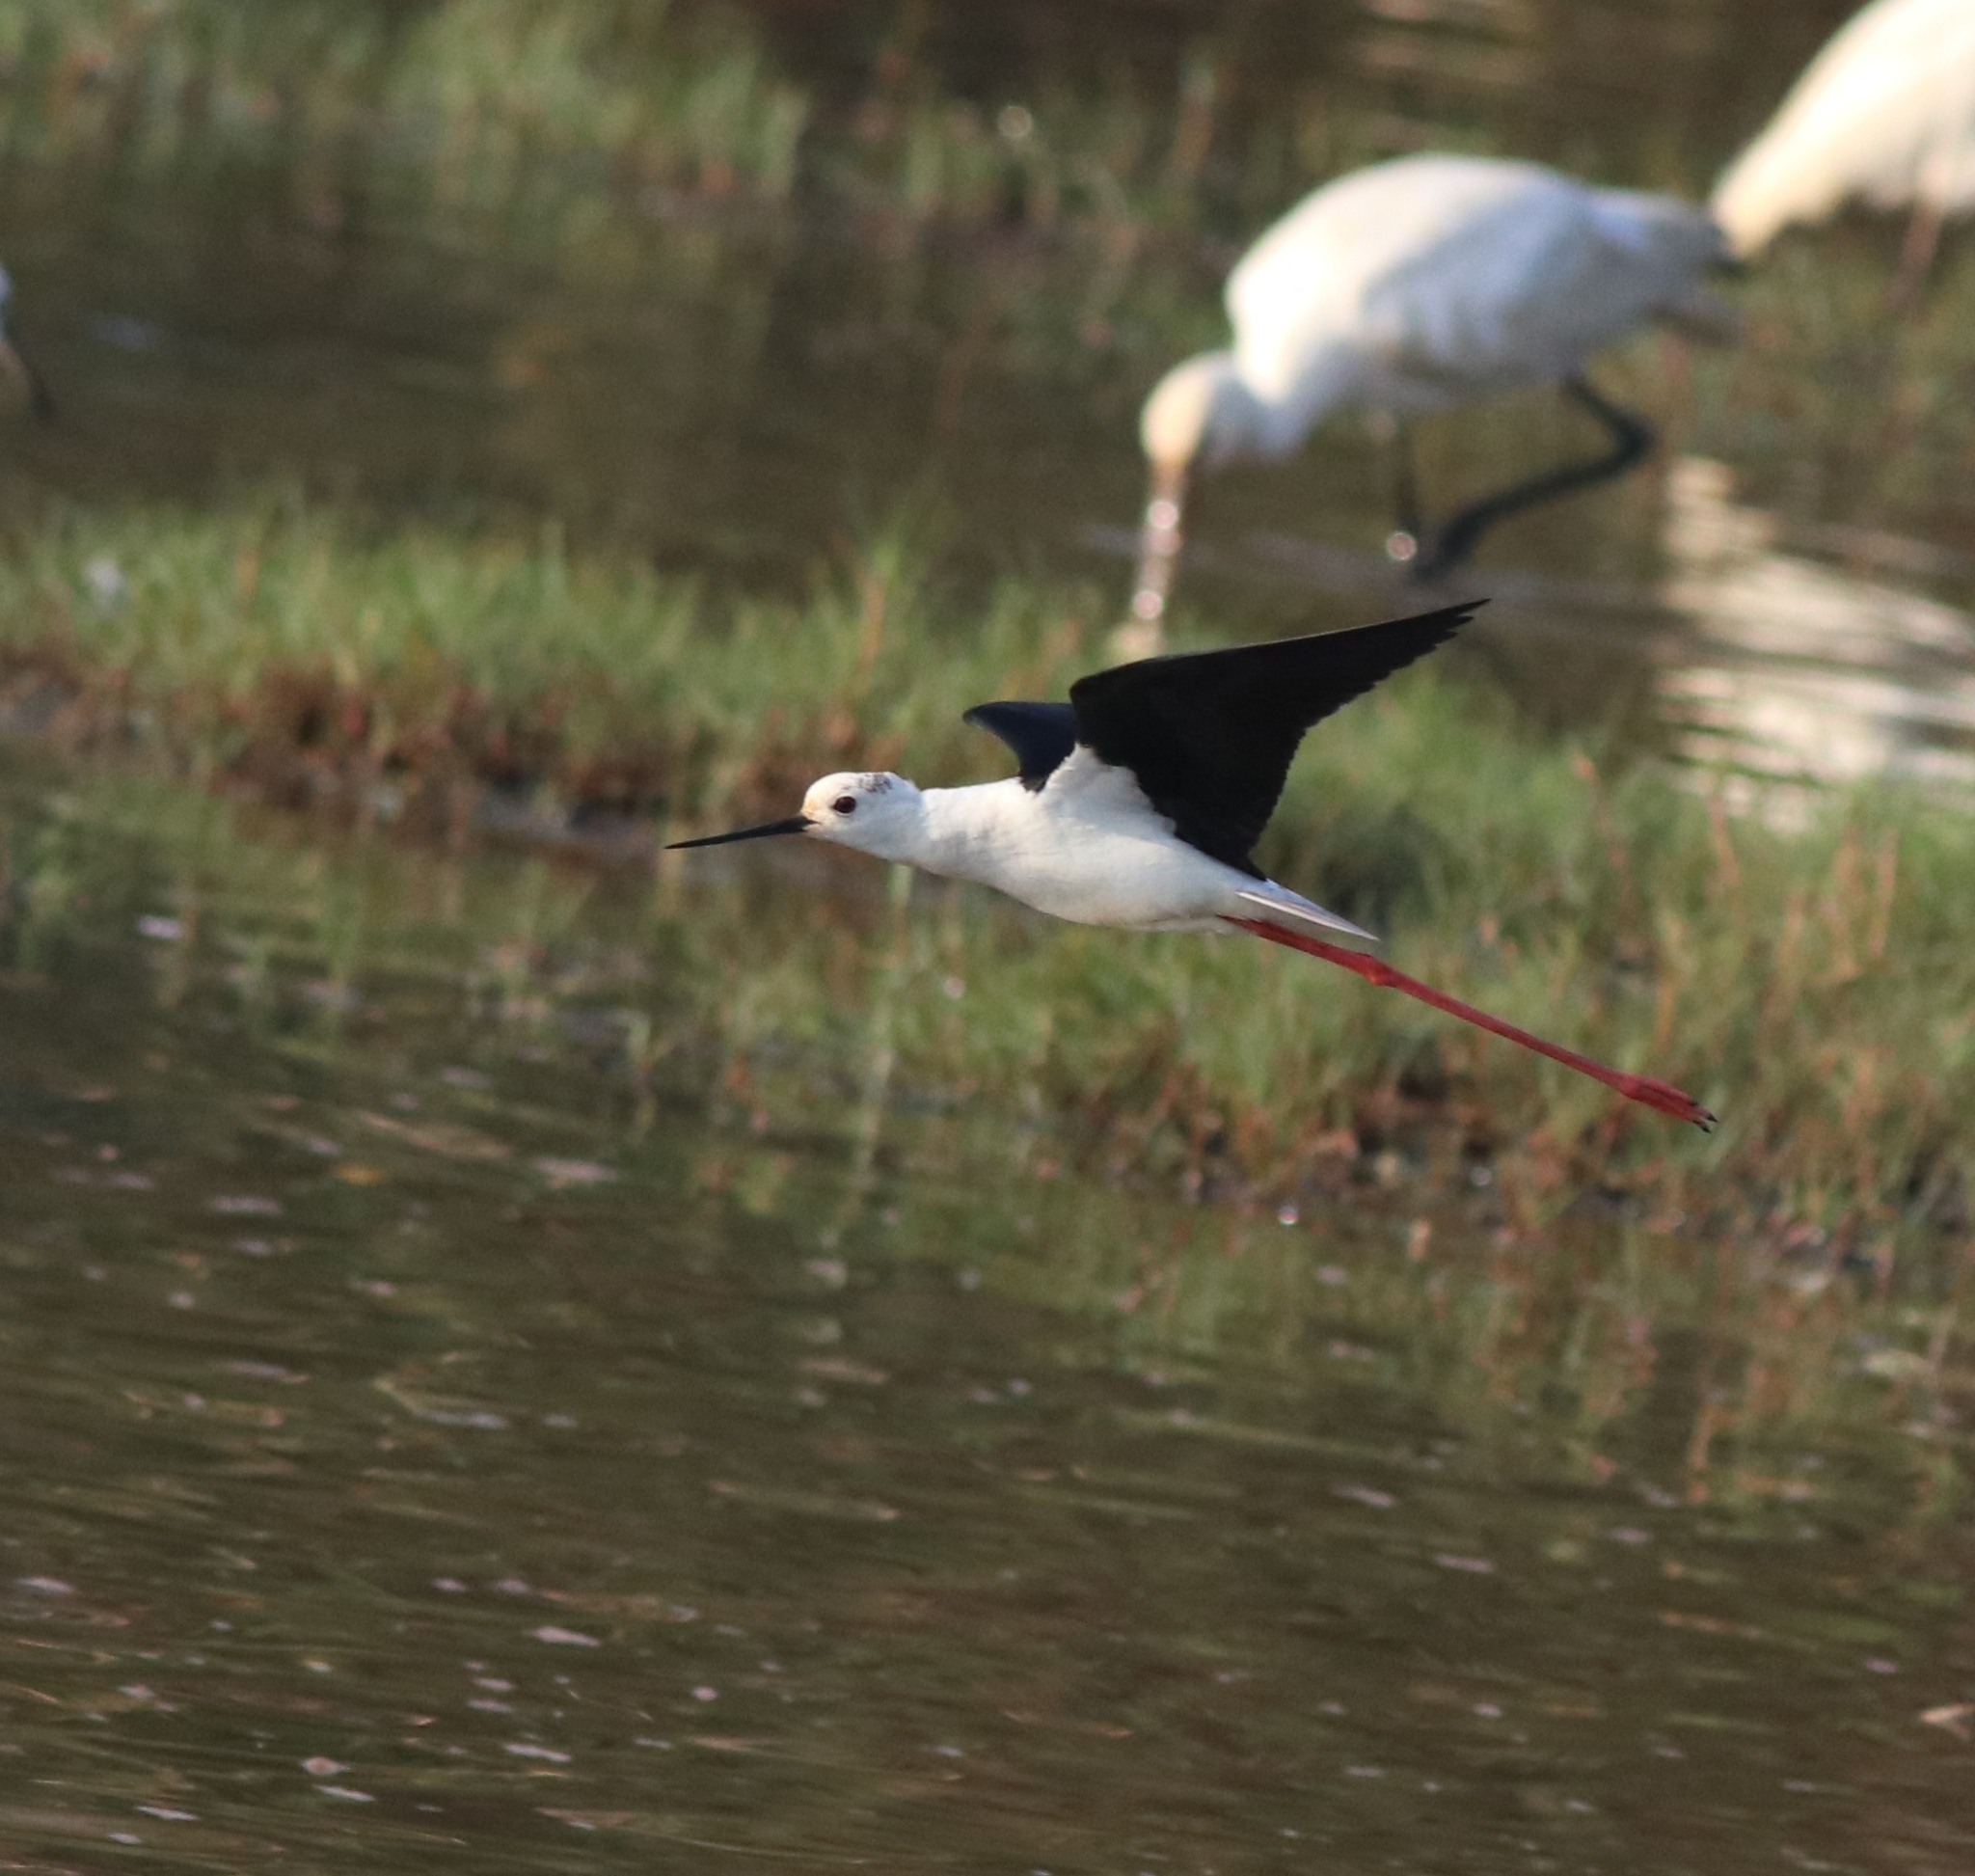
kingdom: Animalia
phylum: Chordata
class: Aves
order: Charadriiformes
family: Recurvirostridae
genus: Himantopus
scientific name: Himantopus himantopus
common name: Black-winged stilt
